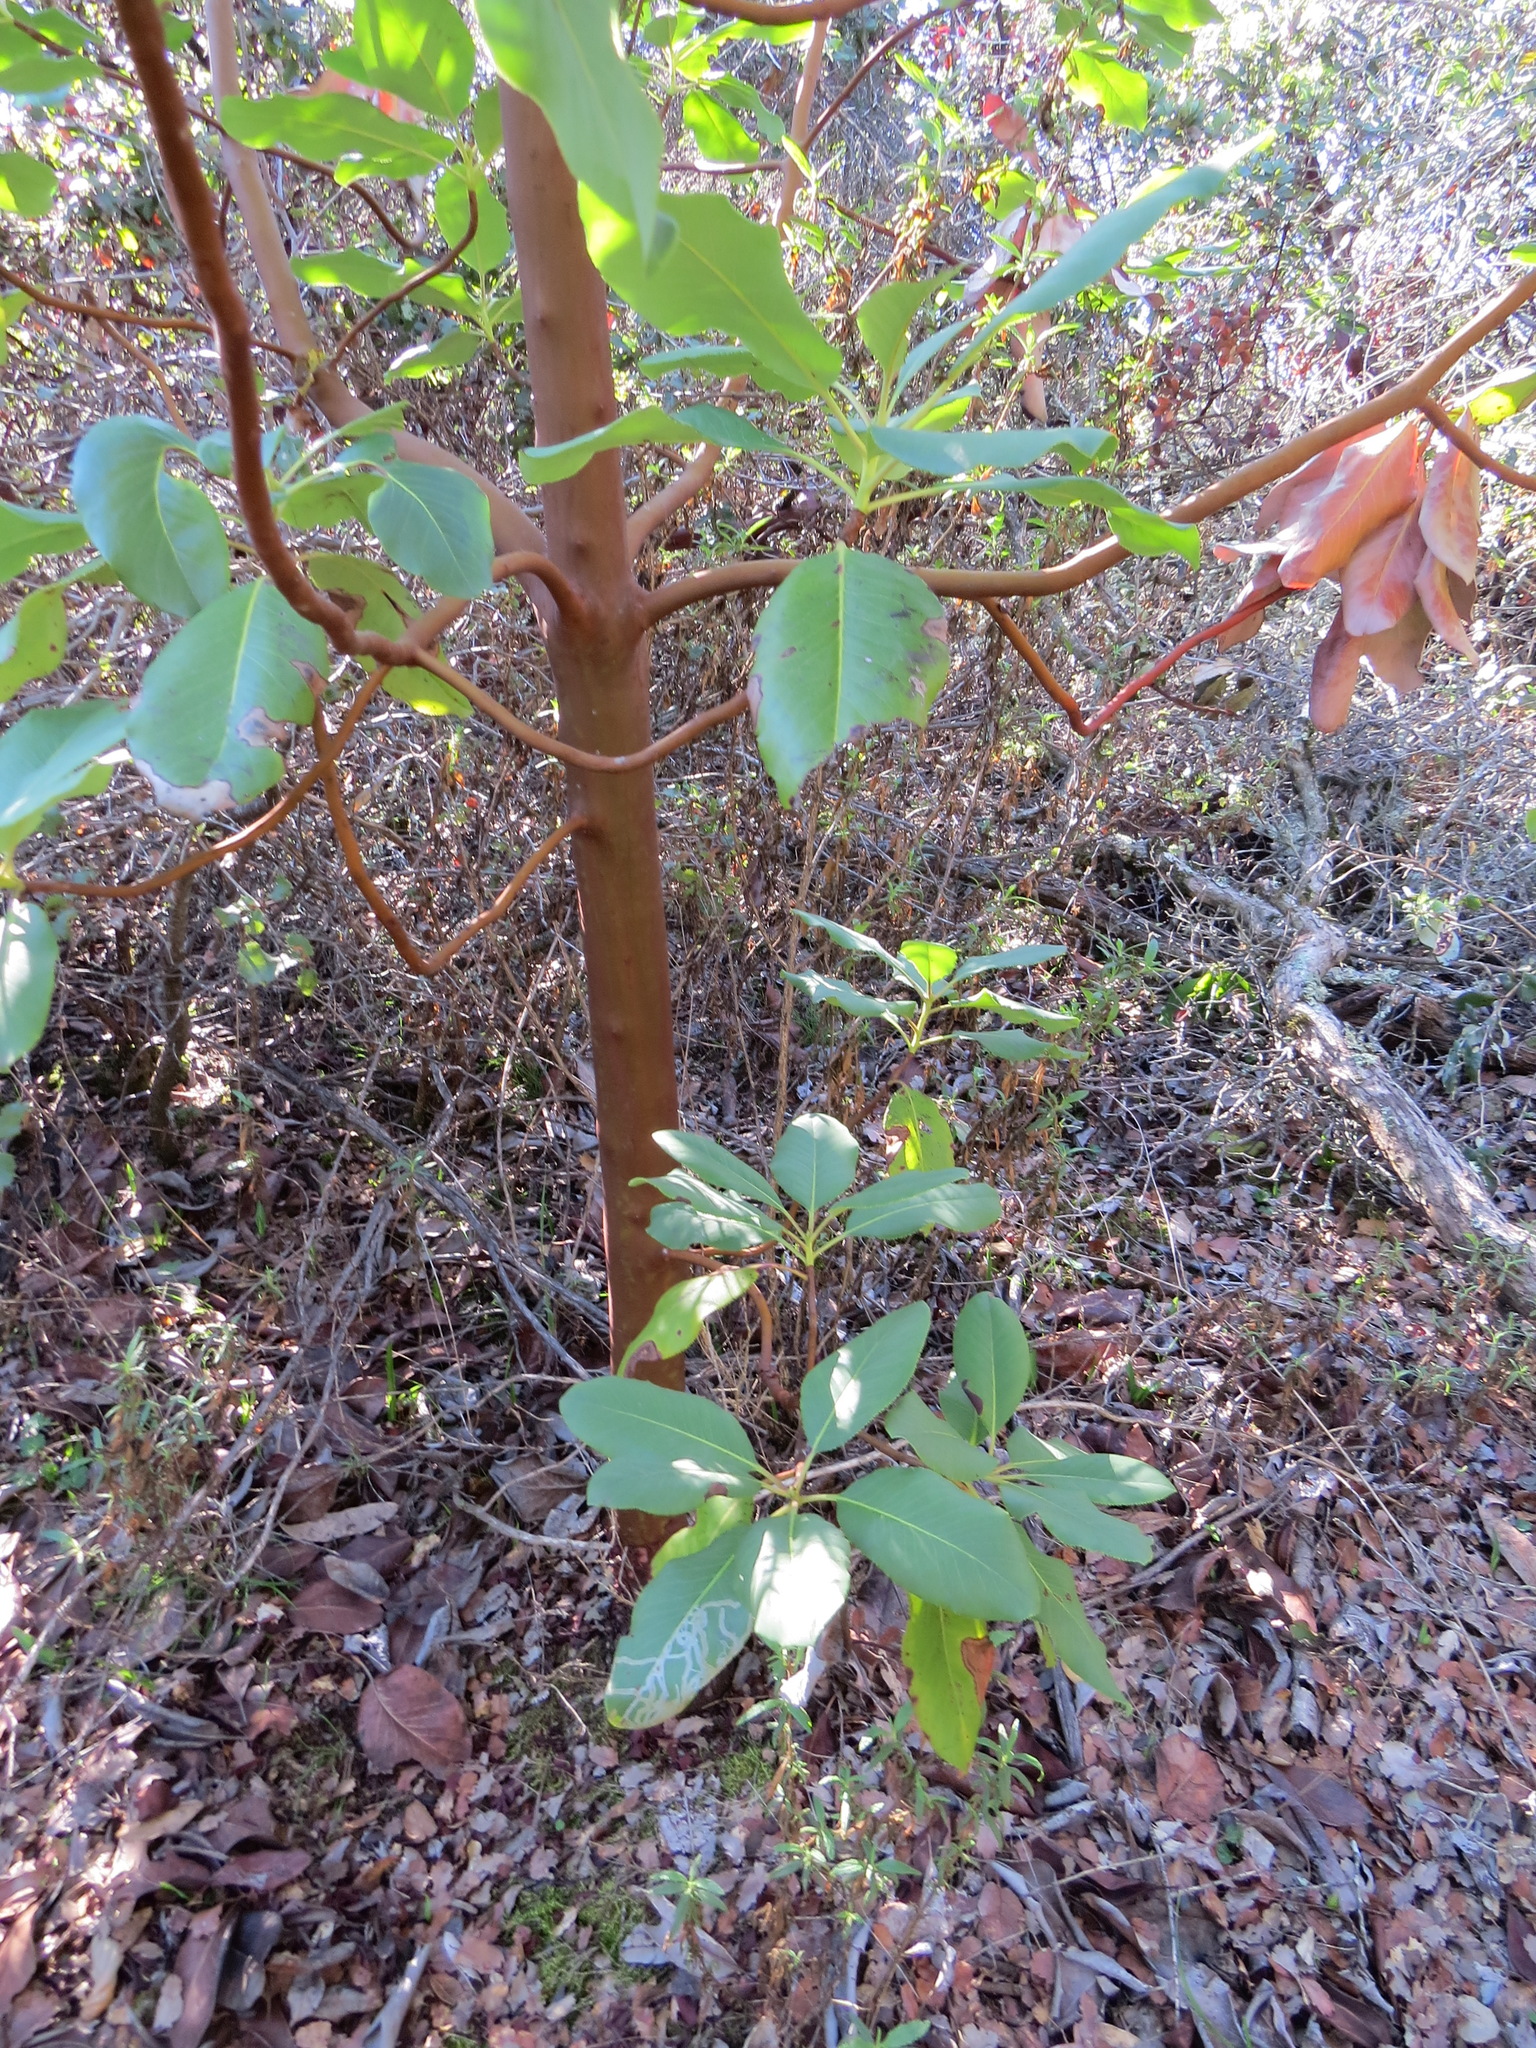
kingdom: Plantae
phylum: Tracheophyta
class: Magnoliopsida
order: Ericales
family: Ericaceae
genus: Arbutus
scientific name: Arbutus menziesii
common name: Pacific madrone
